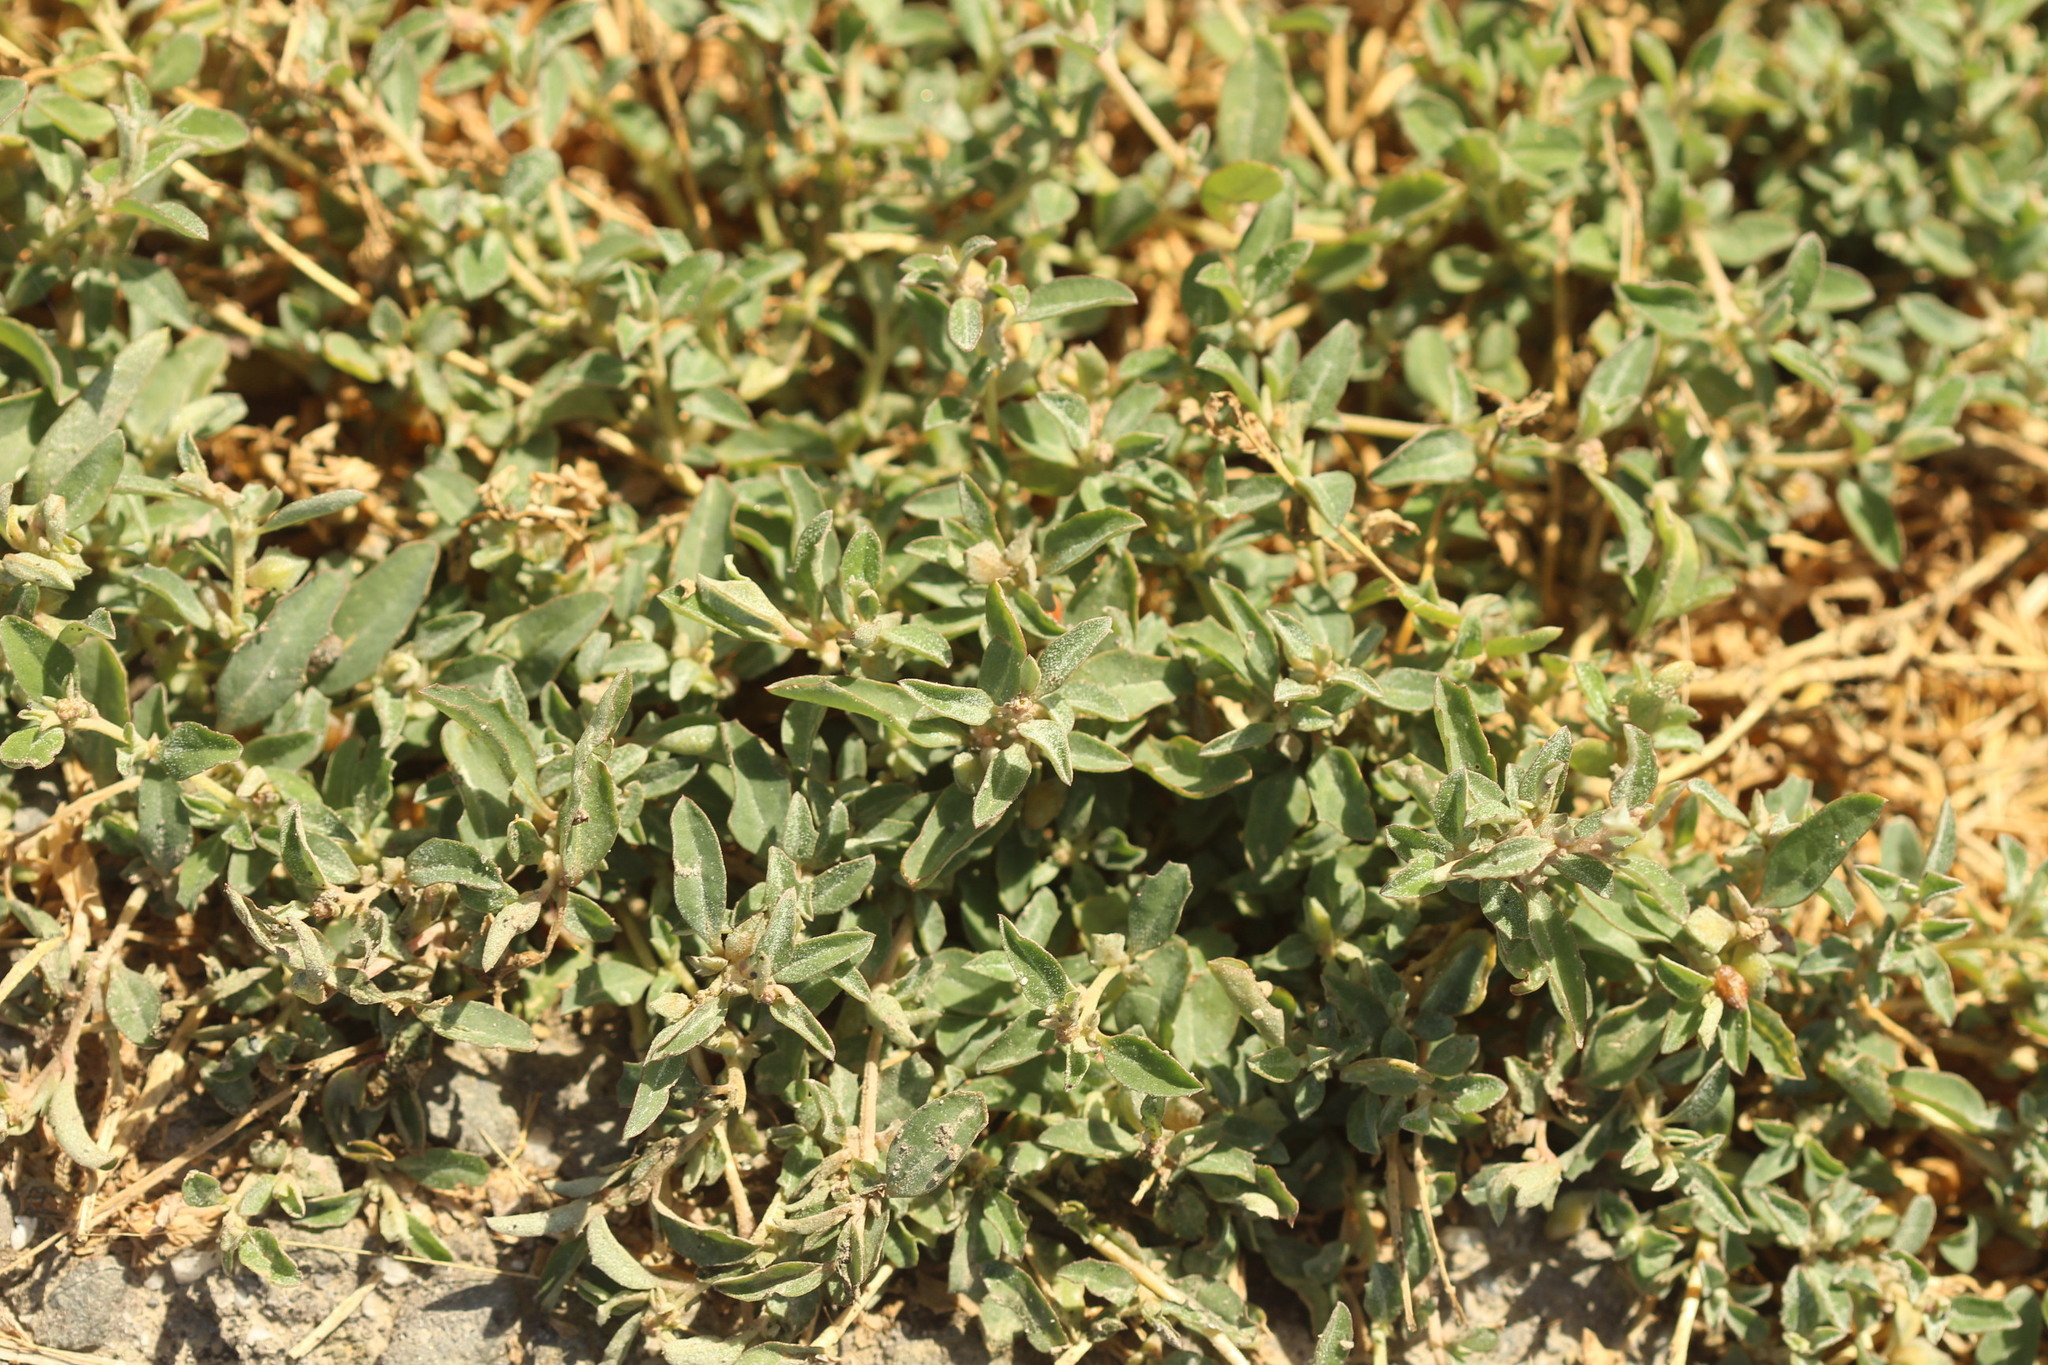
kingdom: Plantae
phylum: Tracheophyta
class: Magnoliopsida
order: Caryophyllales
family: Amaranthaceae
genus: Atriplex
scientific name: Atriplex semibaccata
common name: Australian saltbush
